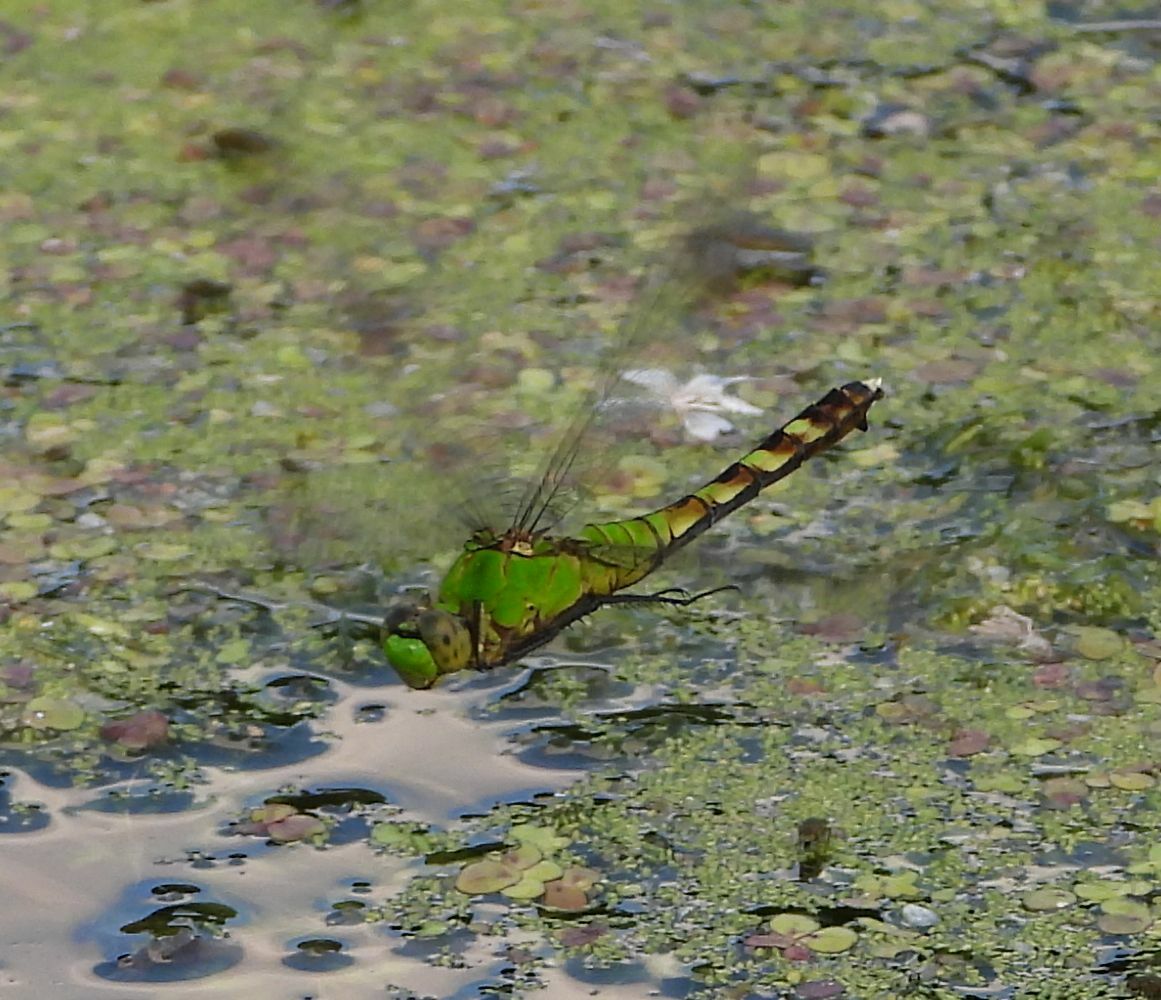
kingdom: Animalia
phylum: Arthropoda
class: Insecta
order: Odonata
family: Libellulidae
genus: Erythemis
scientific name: Erythemis simplicicollis
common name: Eastern pondhawk
